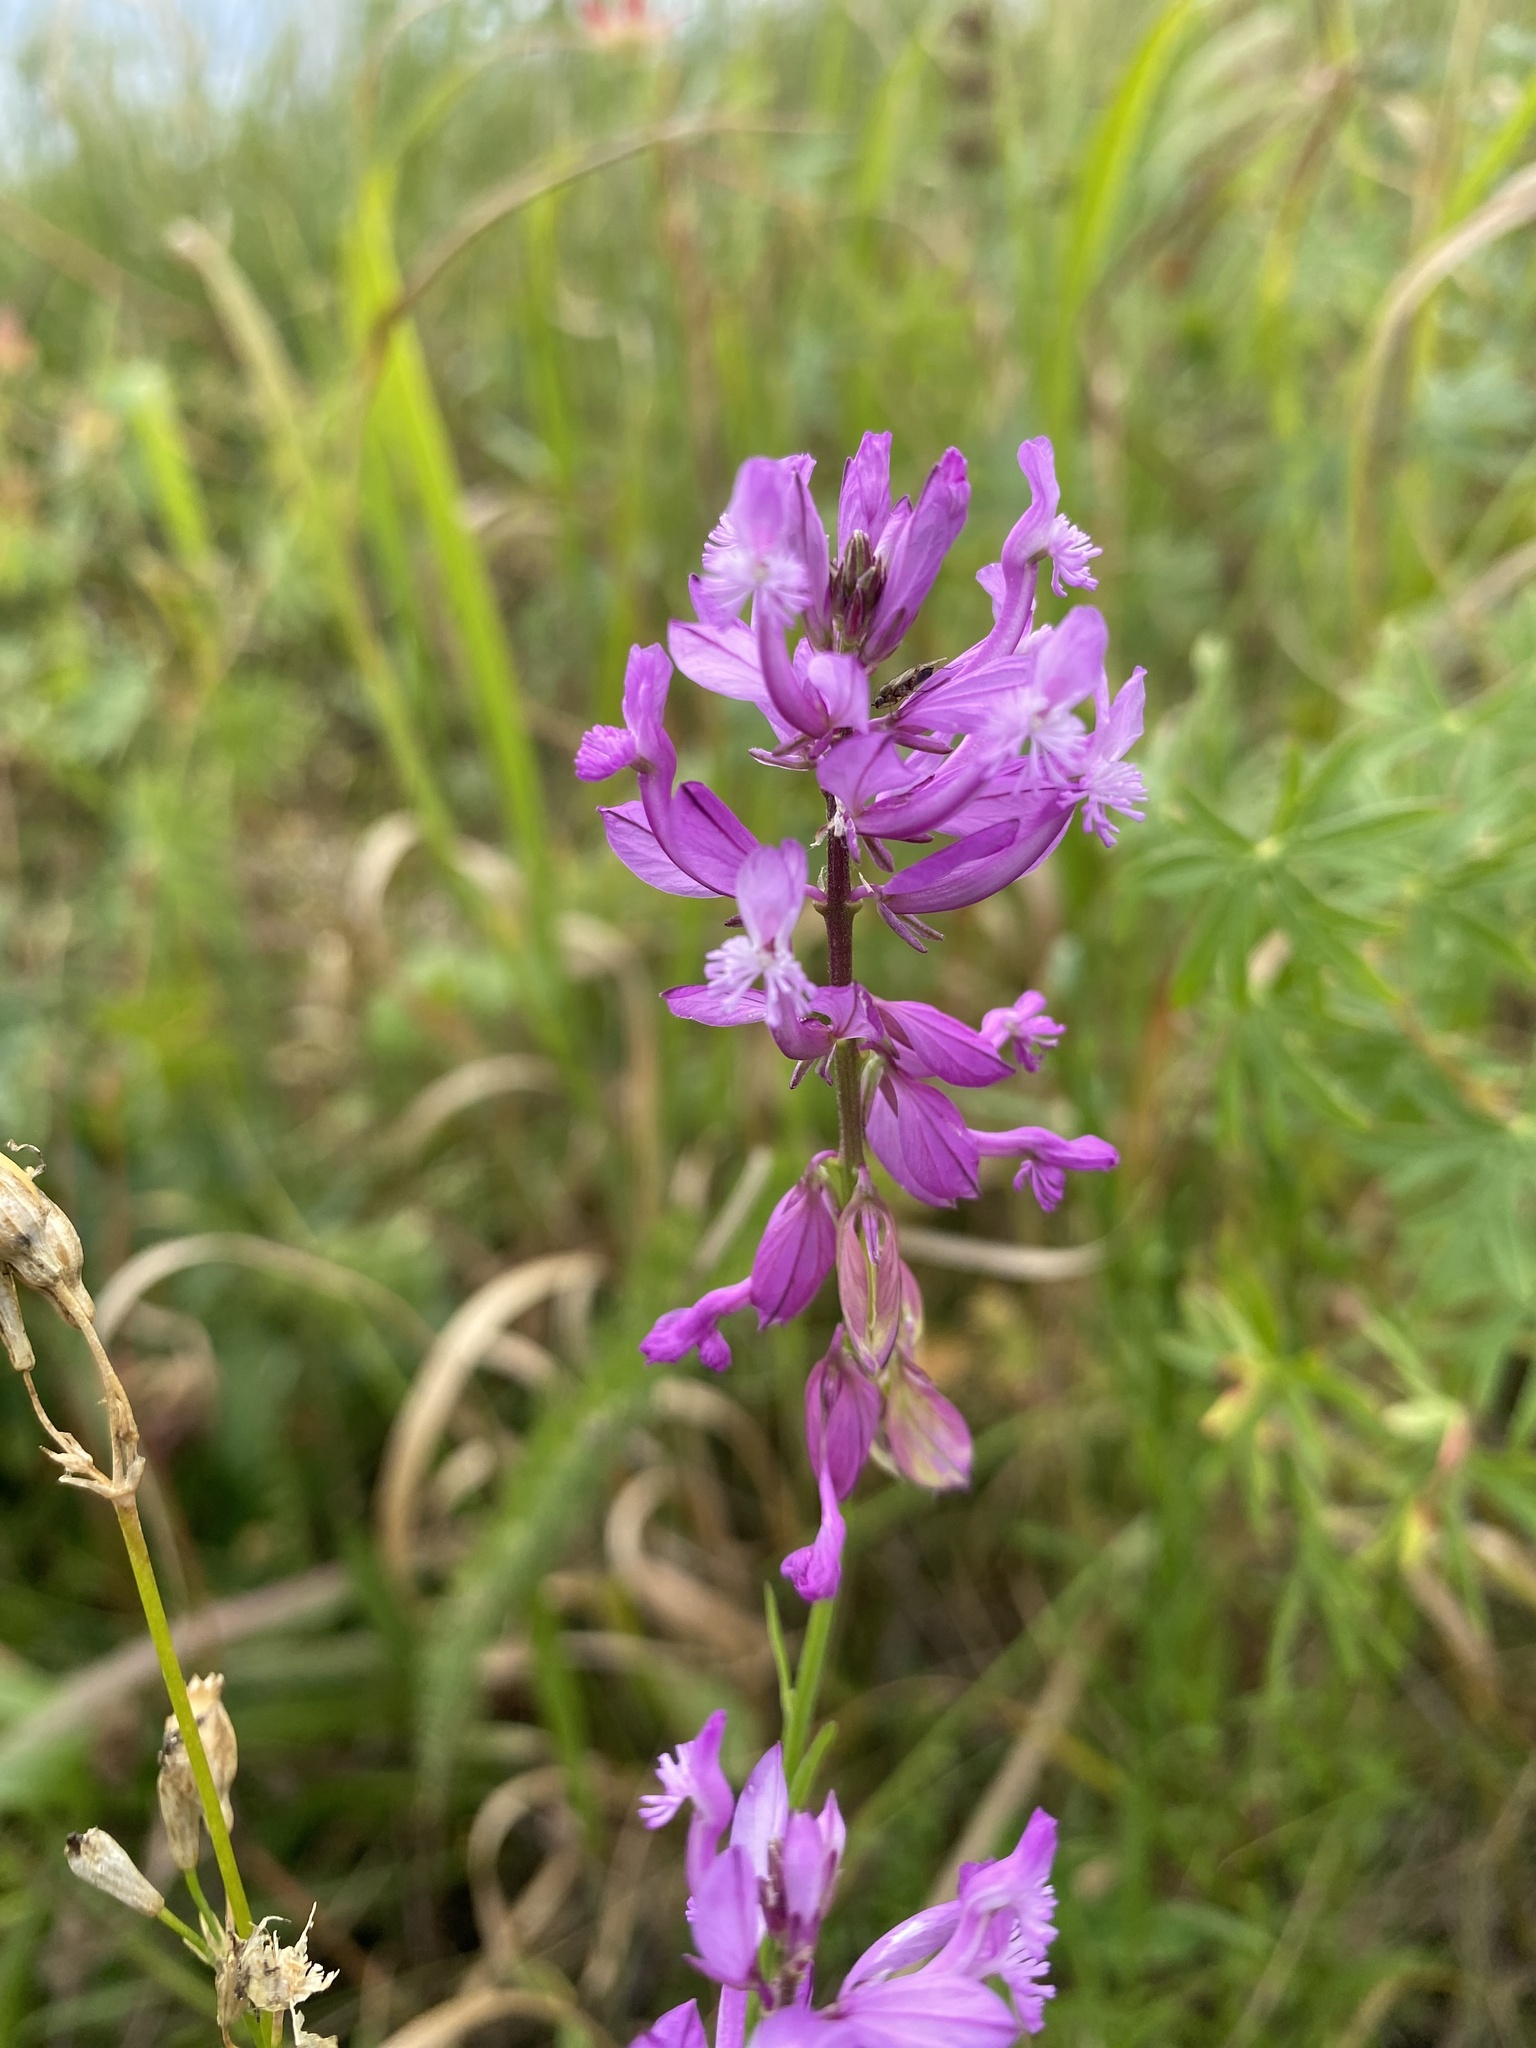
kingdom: Plantae
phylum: Tracheophyta
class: Magnoliopsida
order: Fabales
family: Polygalaceae
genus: Polygala
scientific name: Polygala major
